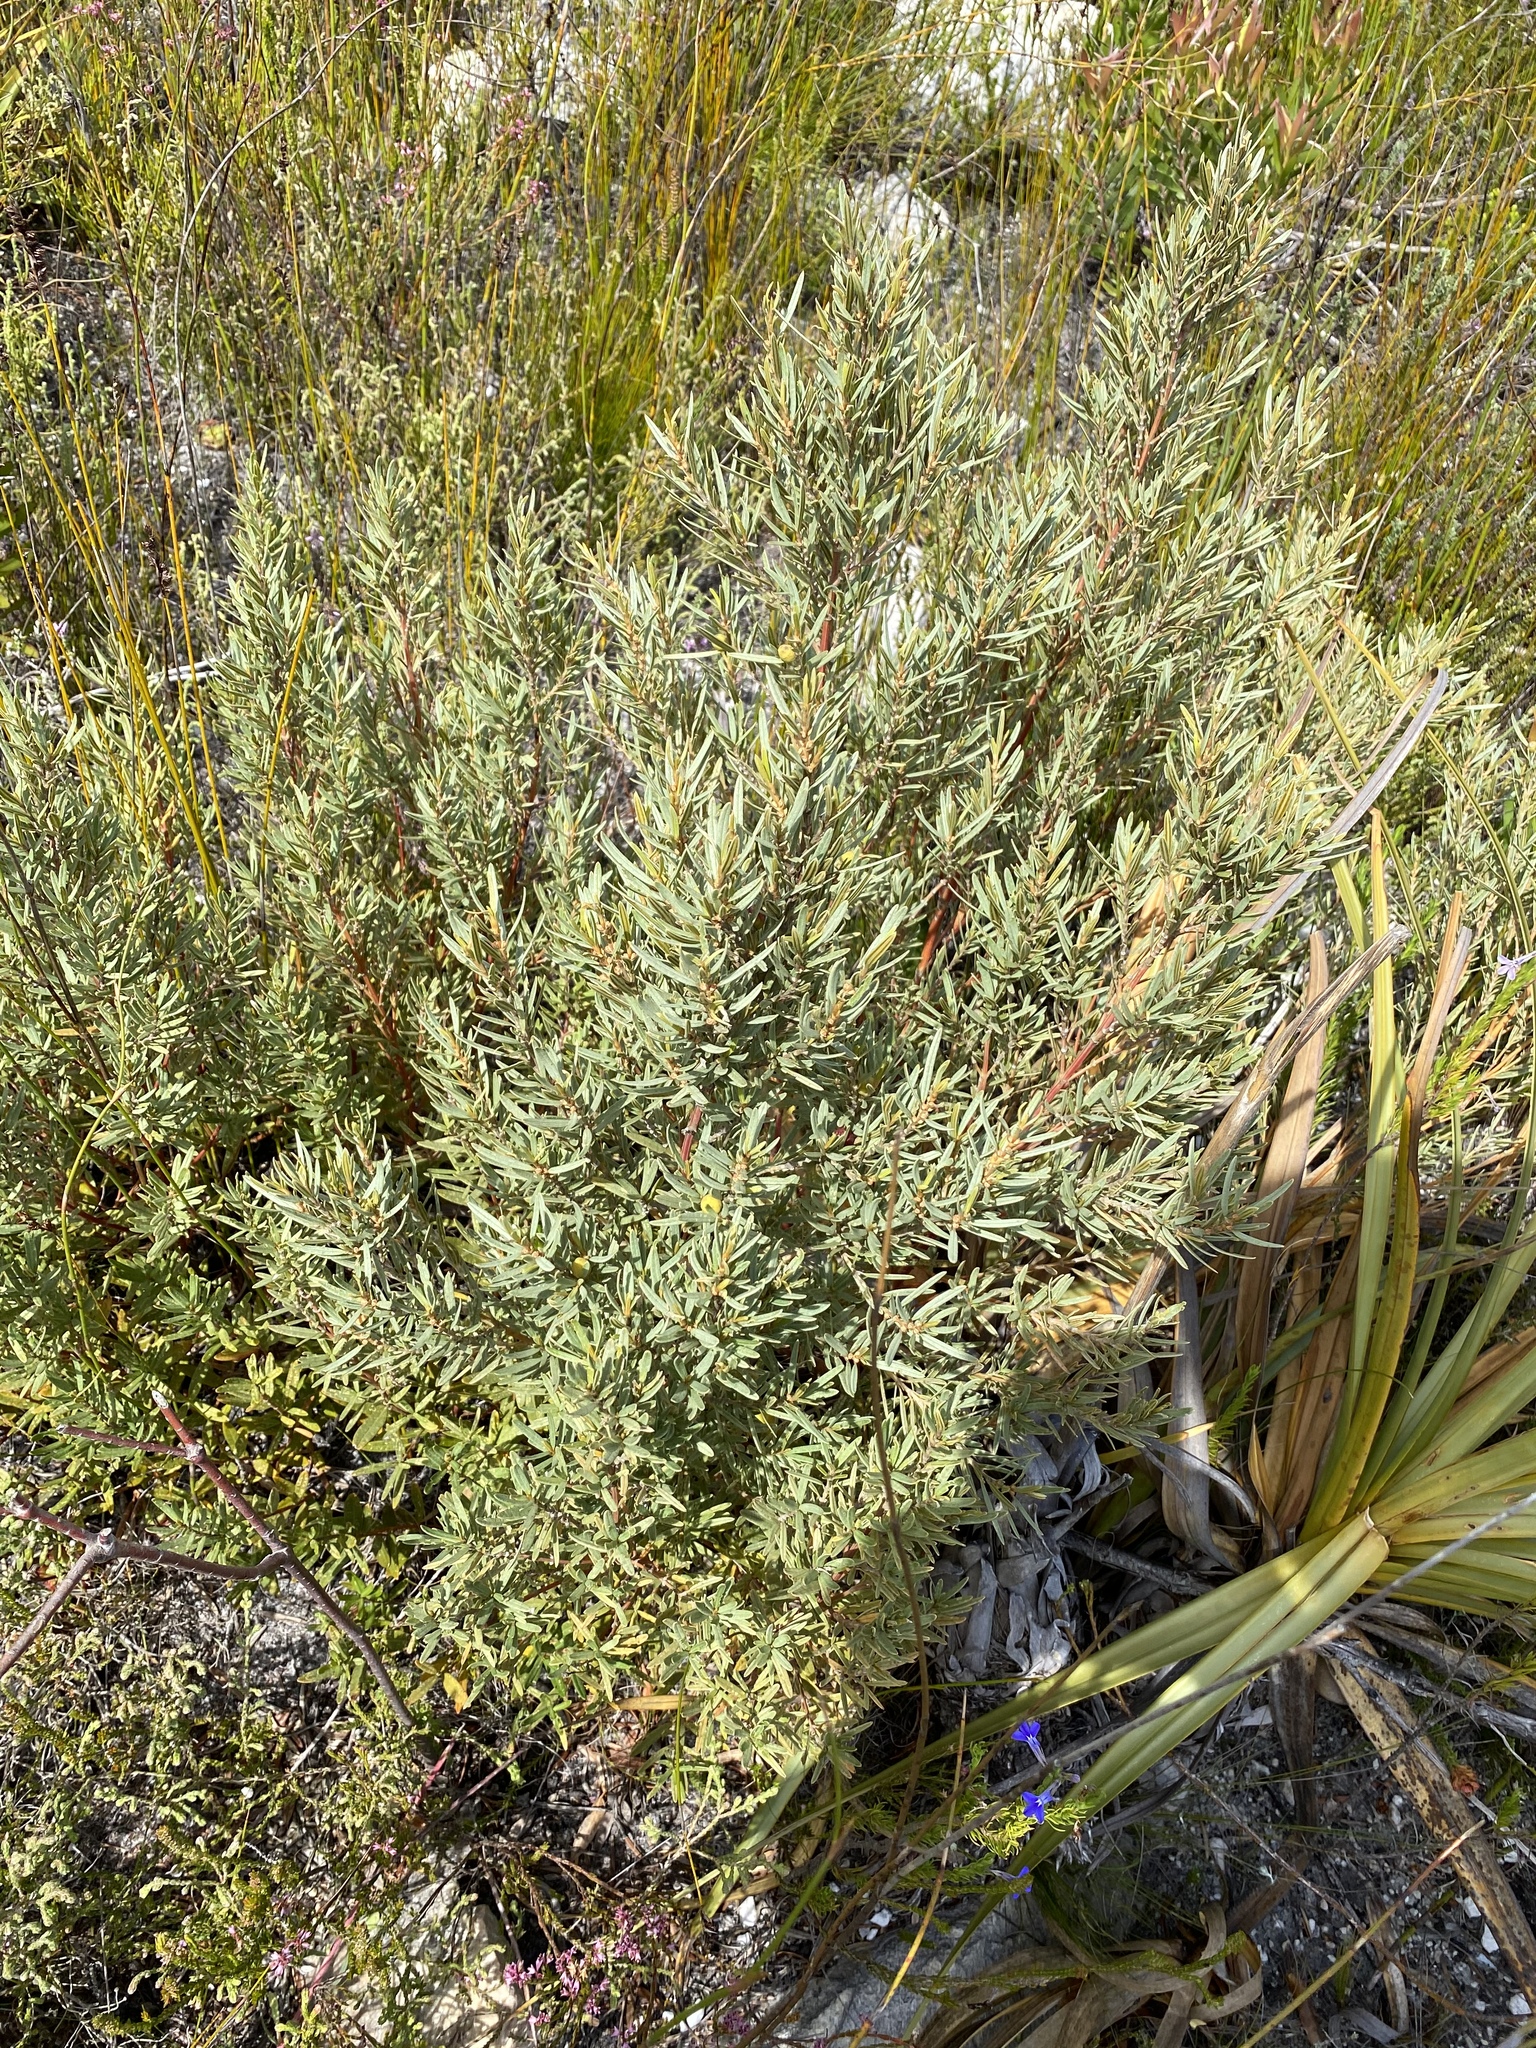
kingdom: Plantae
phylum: Tracheophyta
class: Magnoliopsida
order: Cornales
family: Grubbiaceae
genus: Grubbia
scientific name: Grubbia tomentosa
